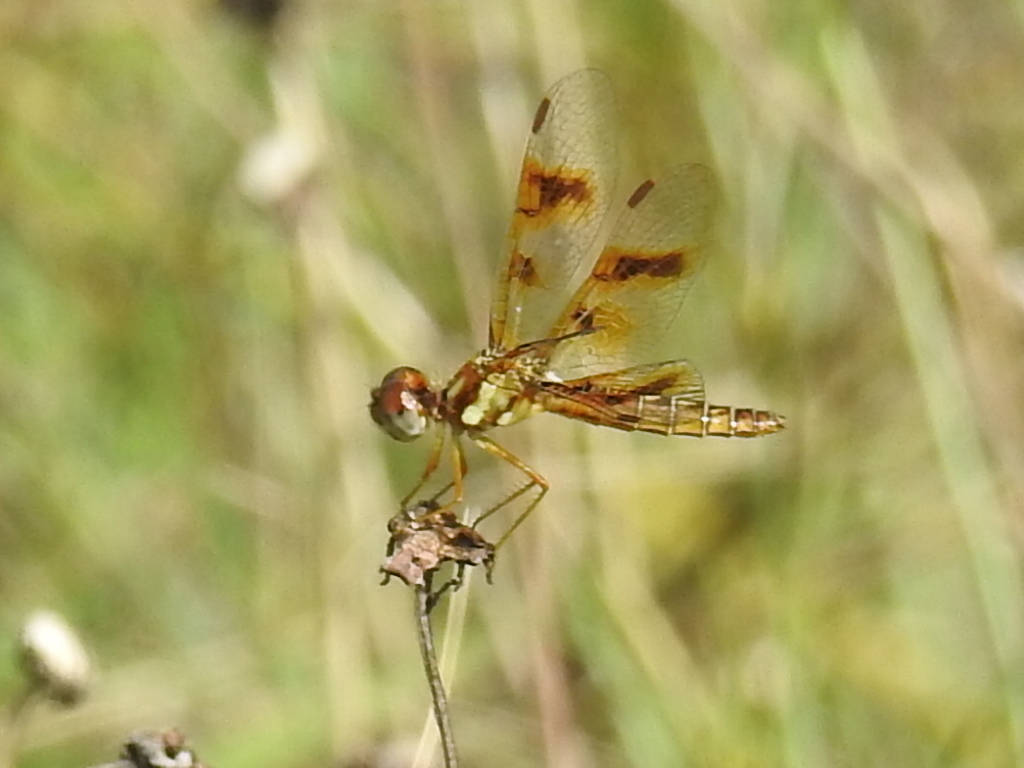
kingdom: Animalia
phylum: Arthropoda
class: Insecta
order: Odonata
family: Libellulidae
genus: Perithemis
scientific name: Perithemis tenera
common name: Eastern amberwing
